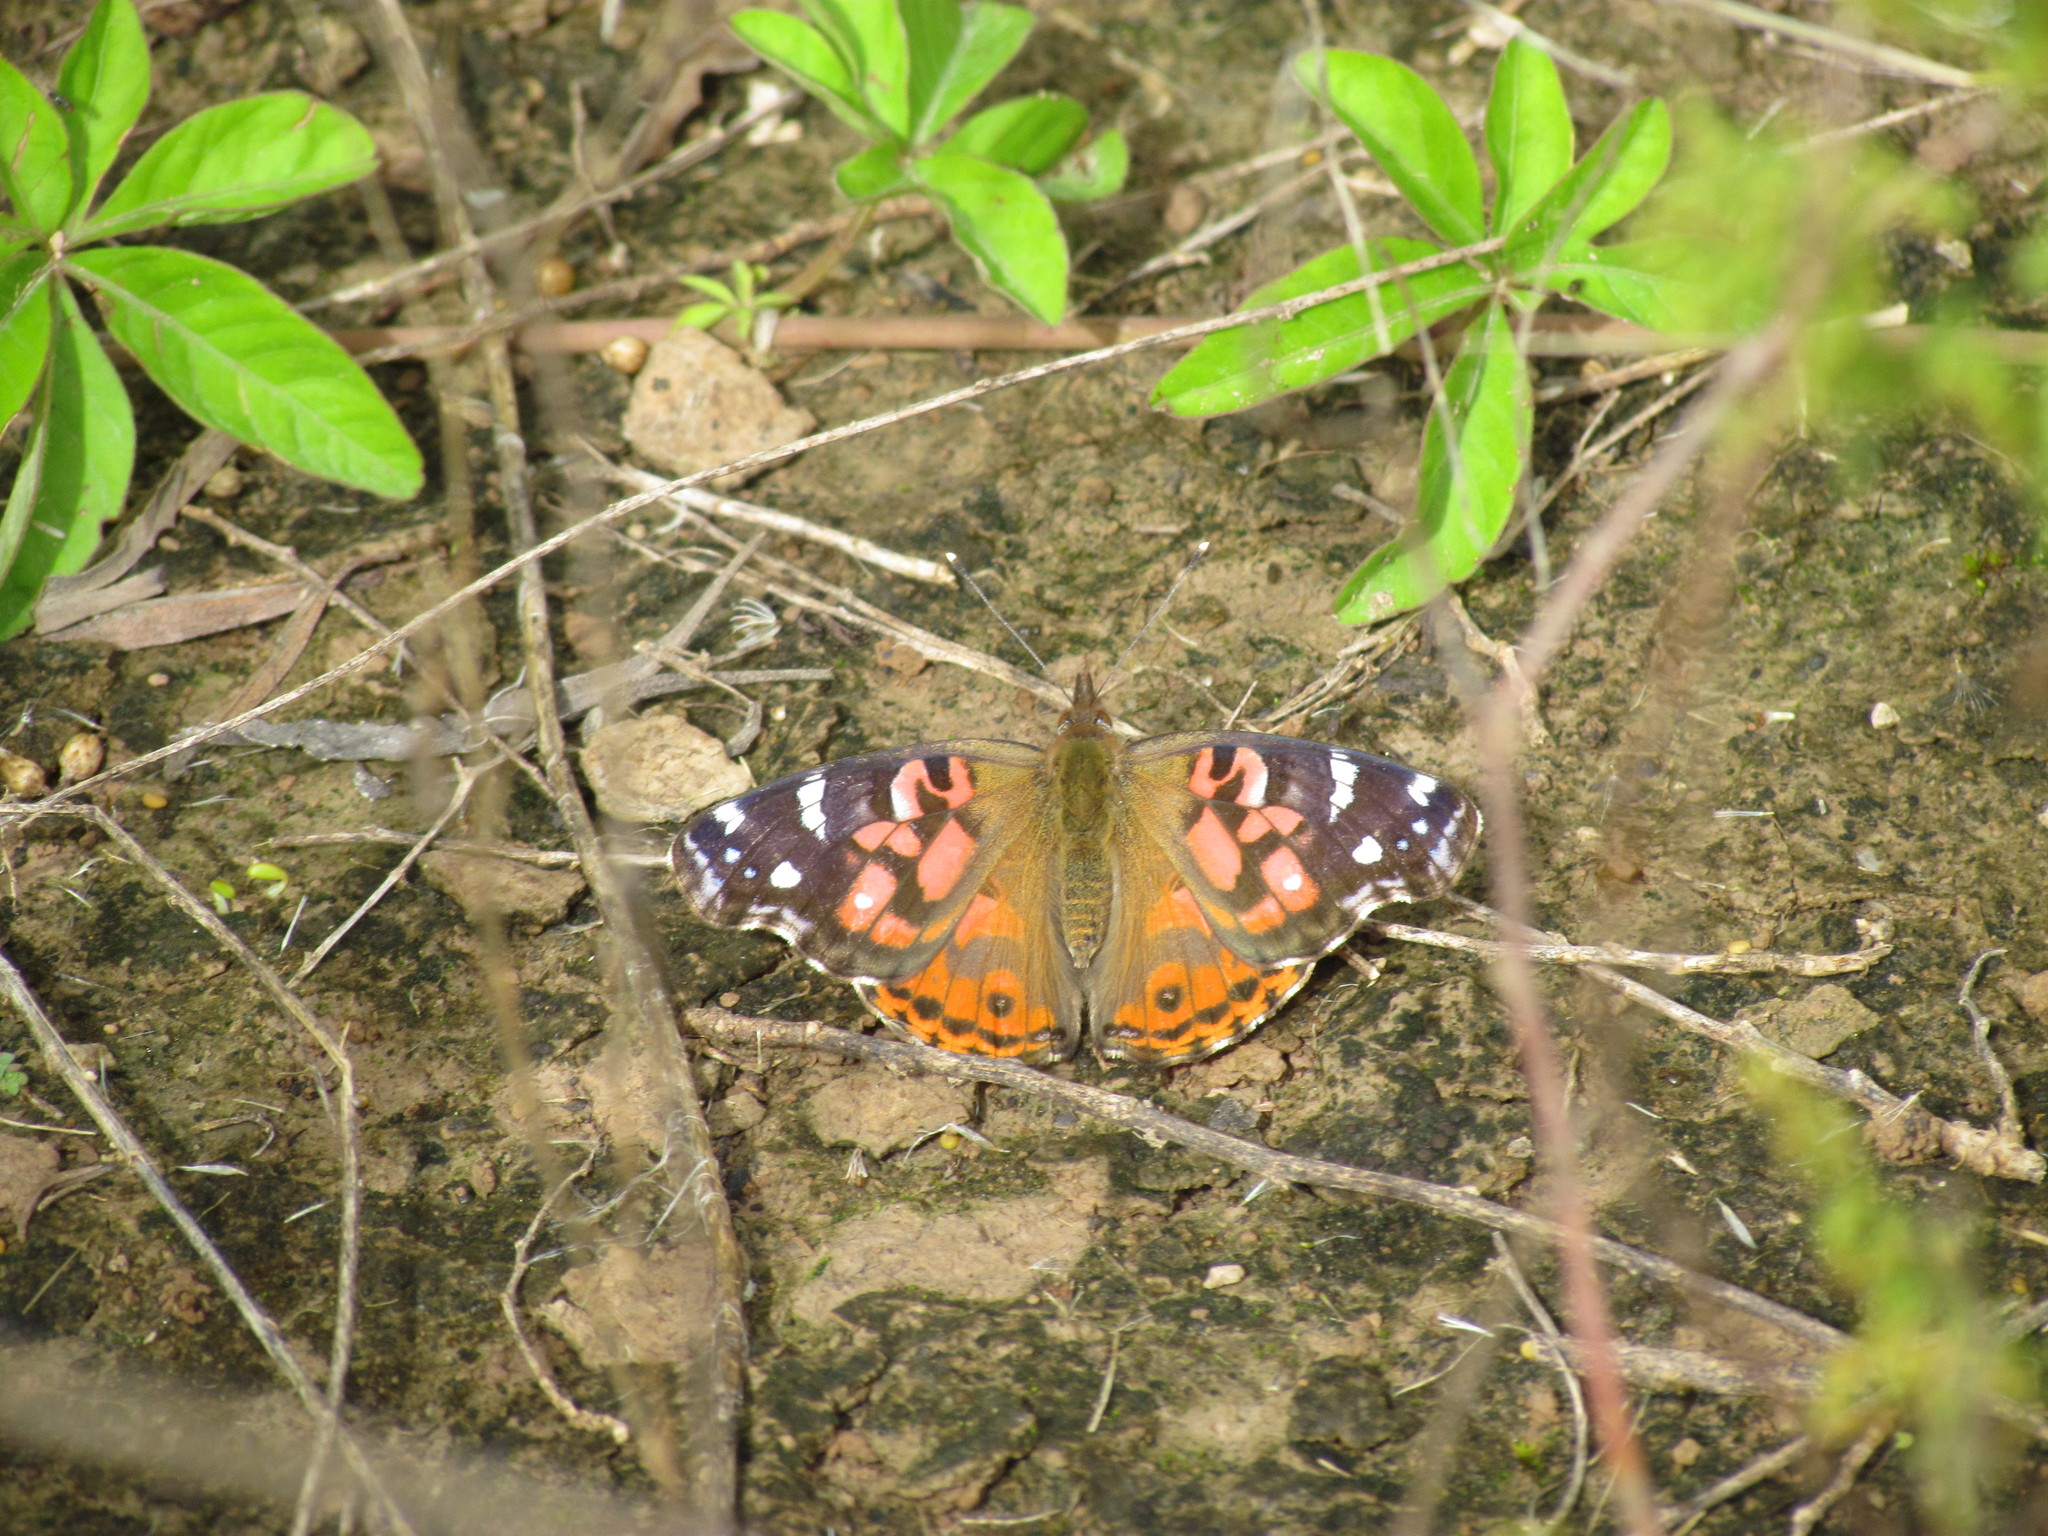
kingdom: Animalia
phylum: Arthropoda
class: Insecta
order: Lepidoptera
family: Nymphalidae
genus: Vanessa
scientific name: Vanessa braziliensis
